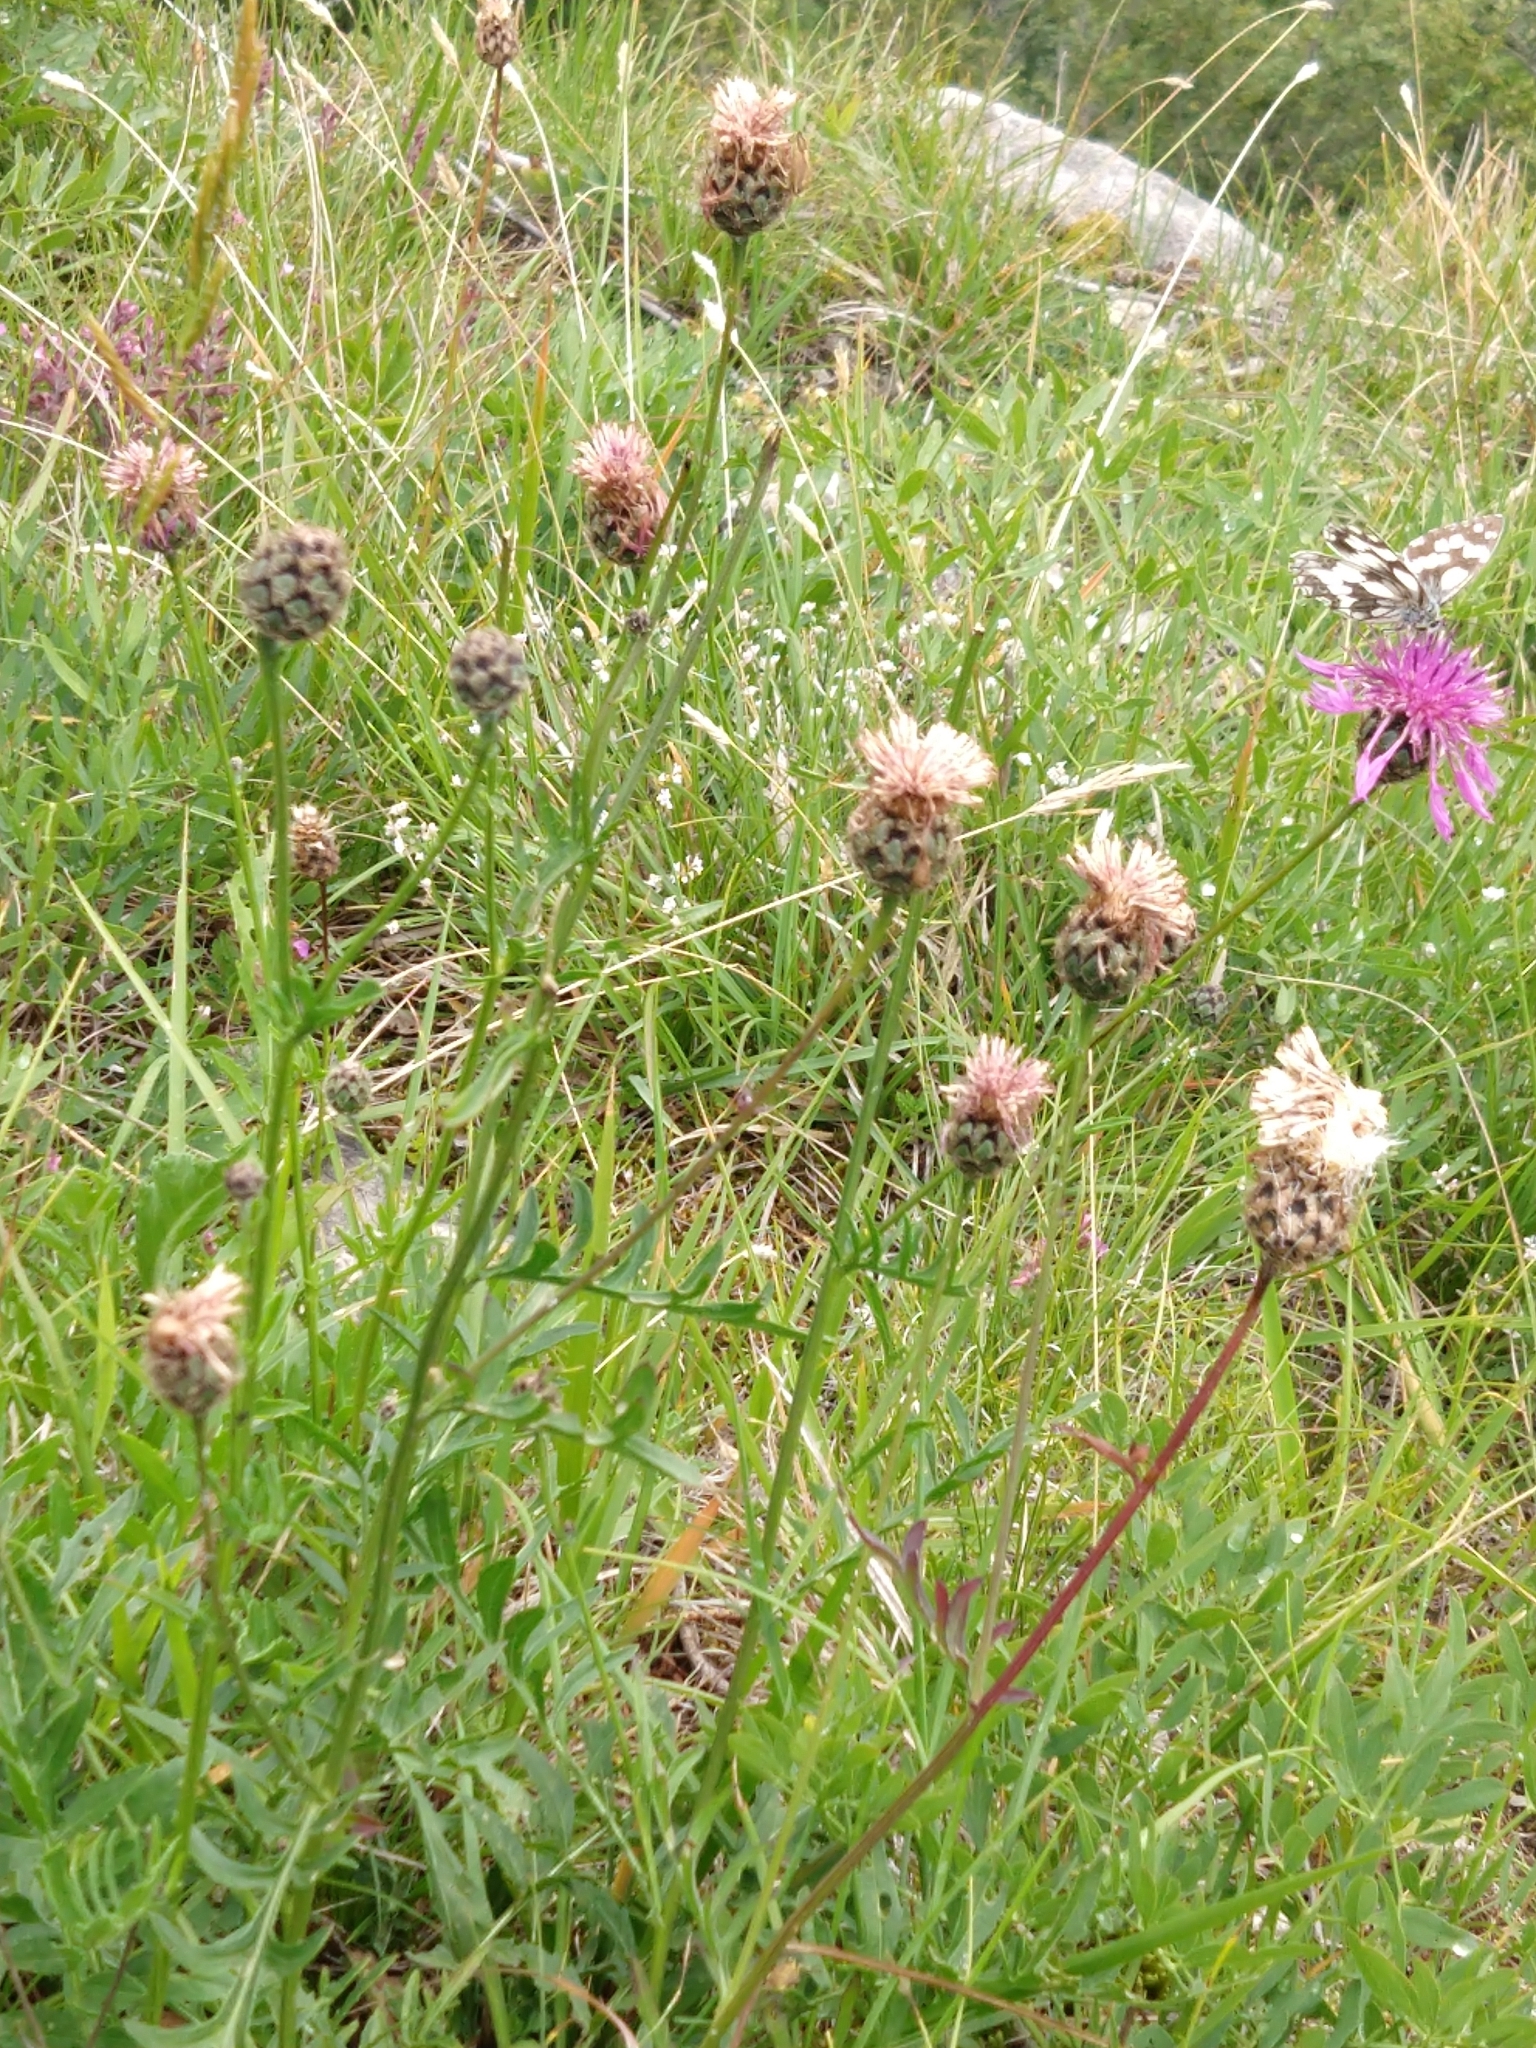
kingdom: Plantae
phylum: Tracheophyta
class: Magnoliopsida
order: Asterales
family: Asteraceae
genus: Centaurea
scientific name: Centaurea scabiosa
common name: Greater knapweed
